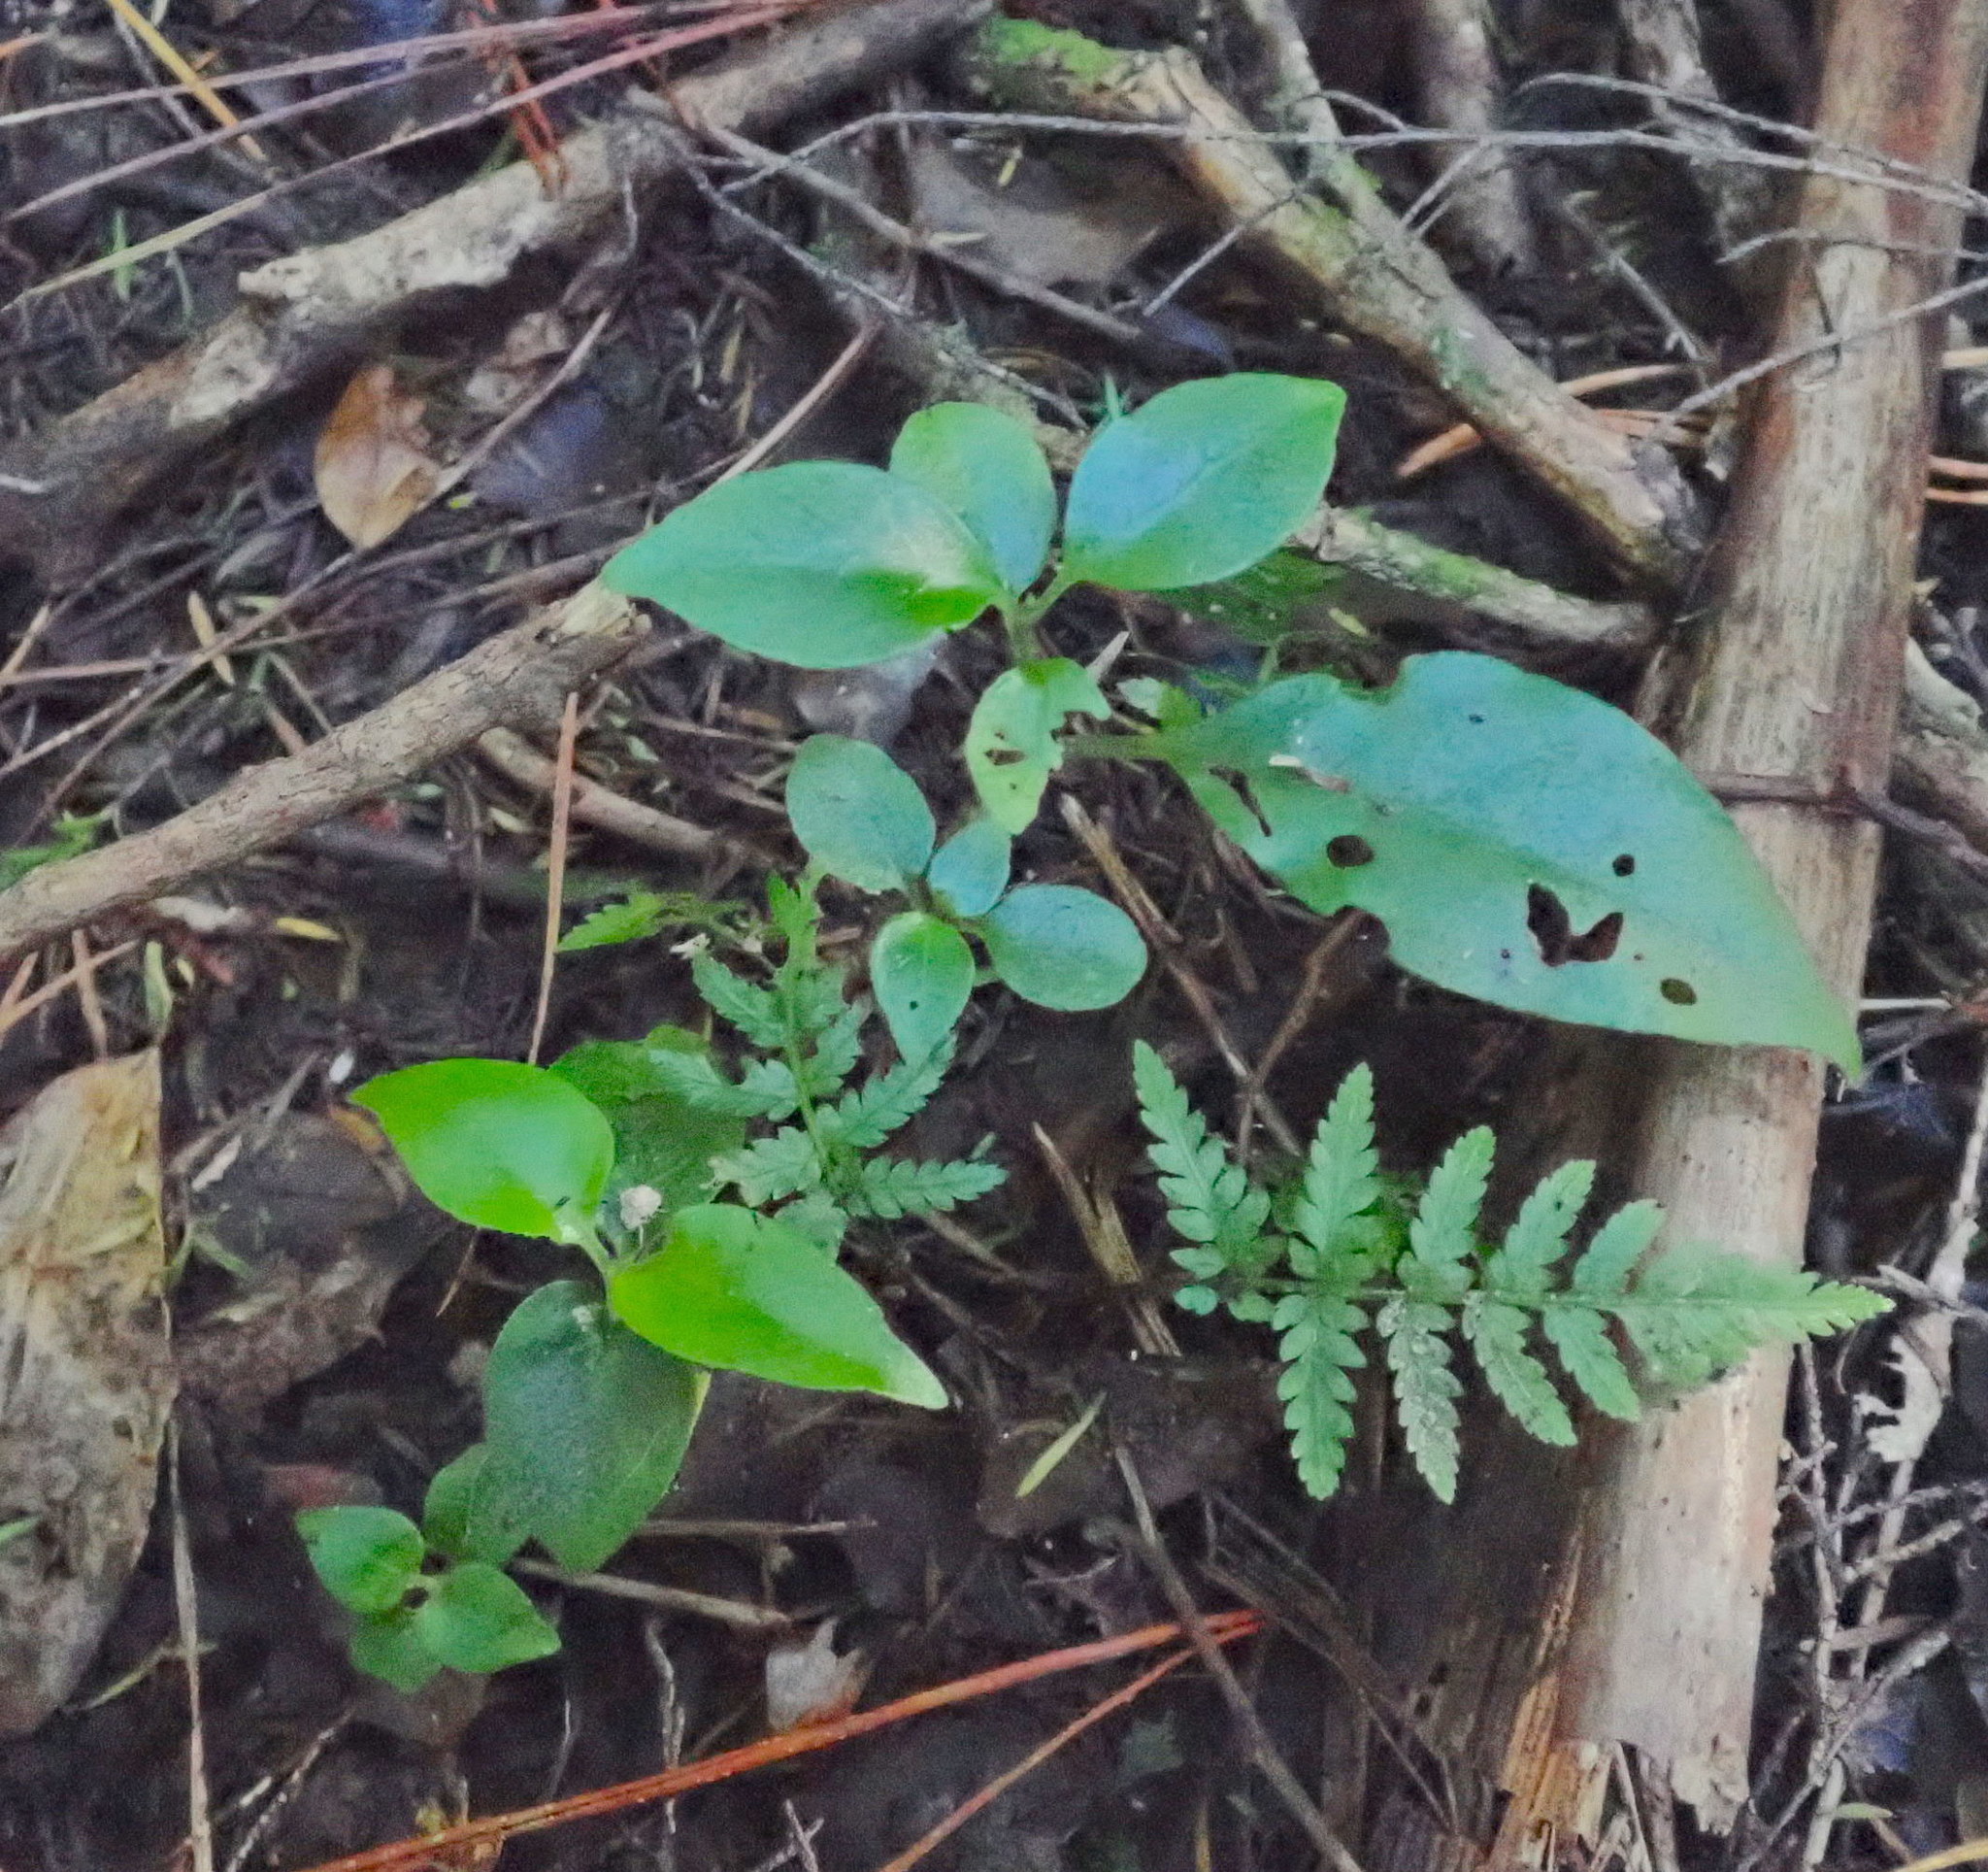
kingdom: Plantae
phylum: Tracheophyta
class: Magnoliopsida
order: Gentianales
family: Loganiaceae
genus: Geniostoma
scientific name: Geniostoma ligustrifolium
